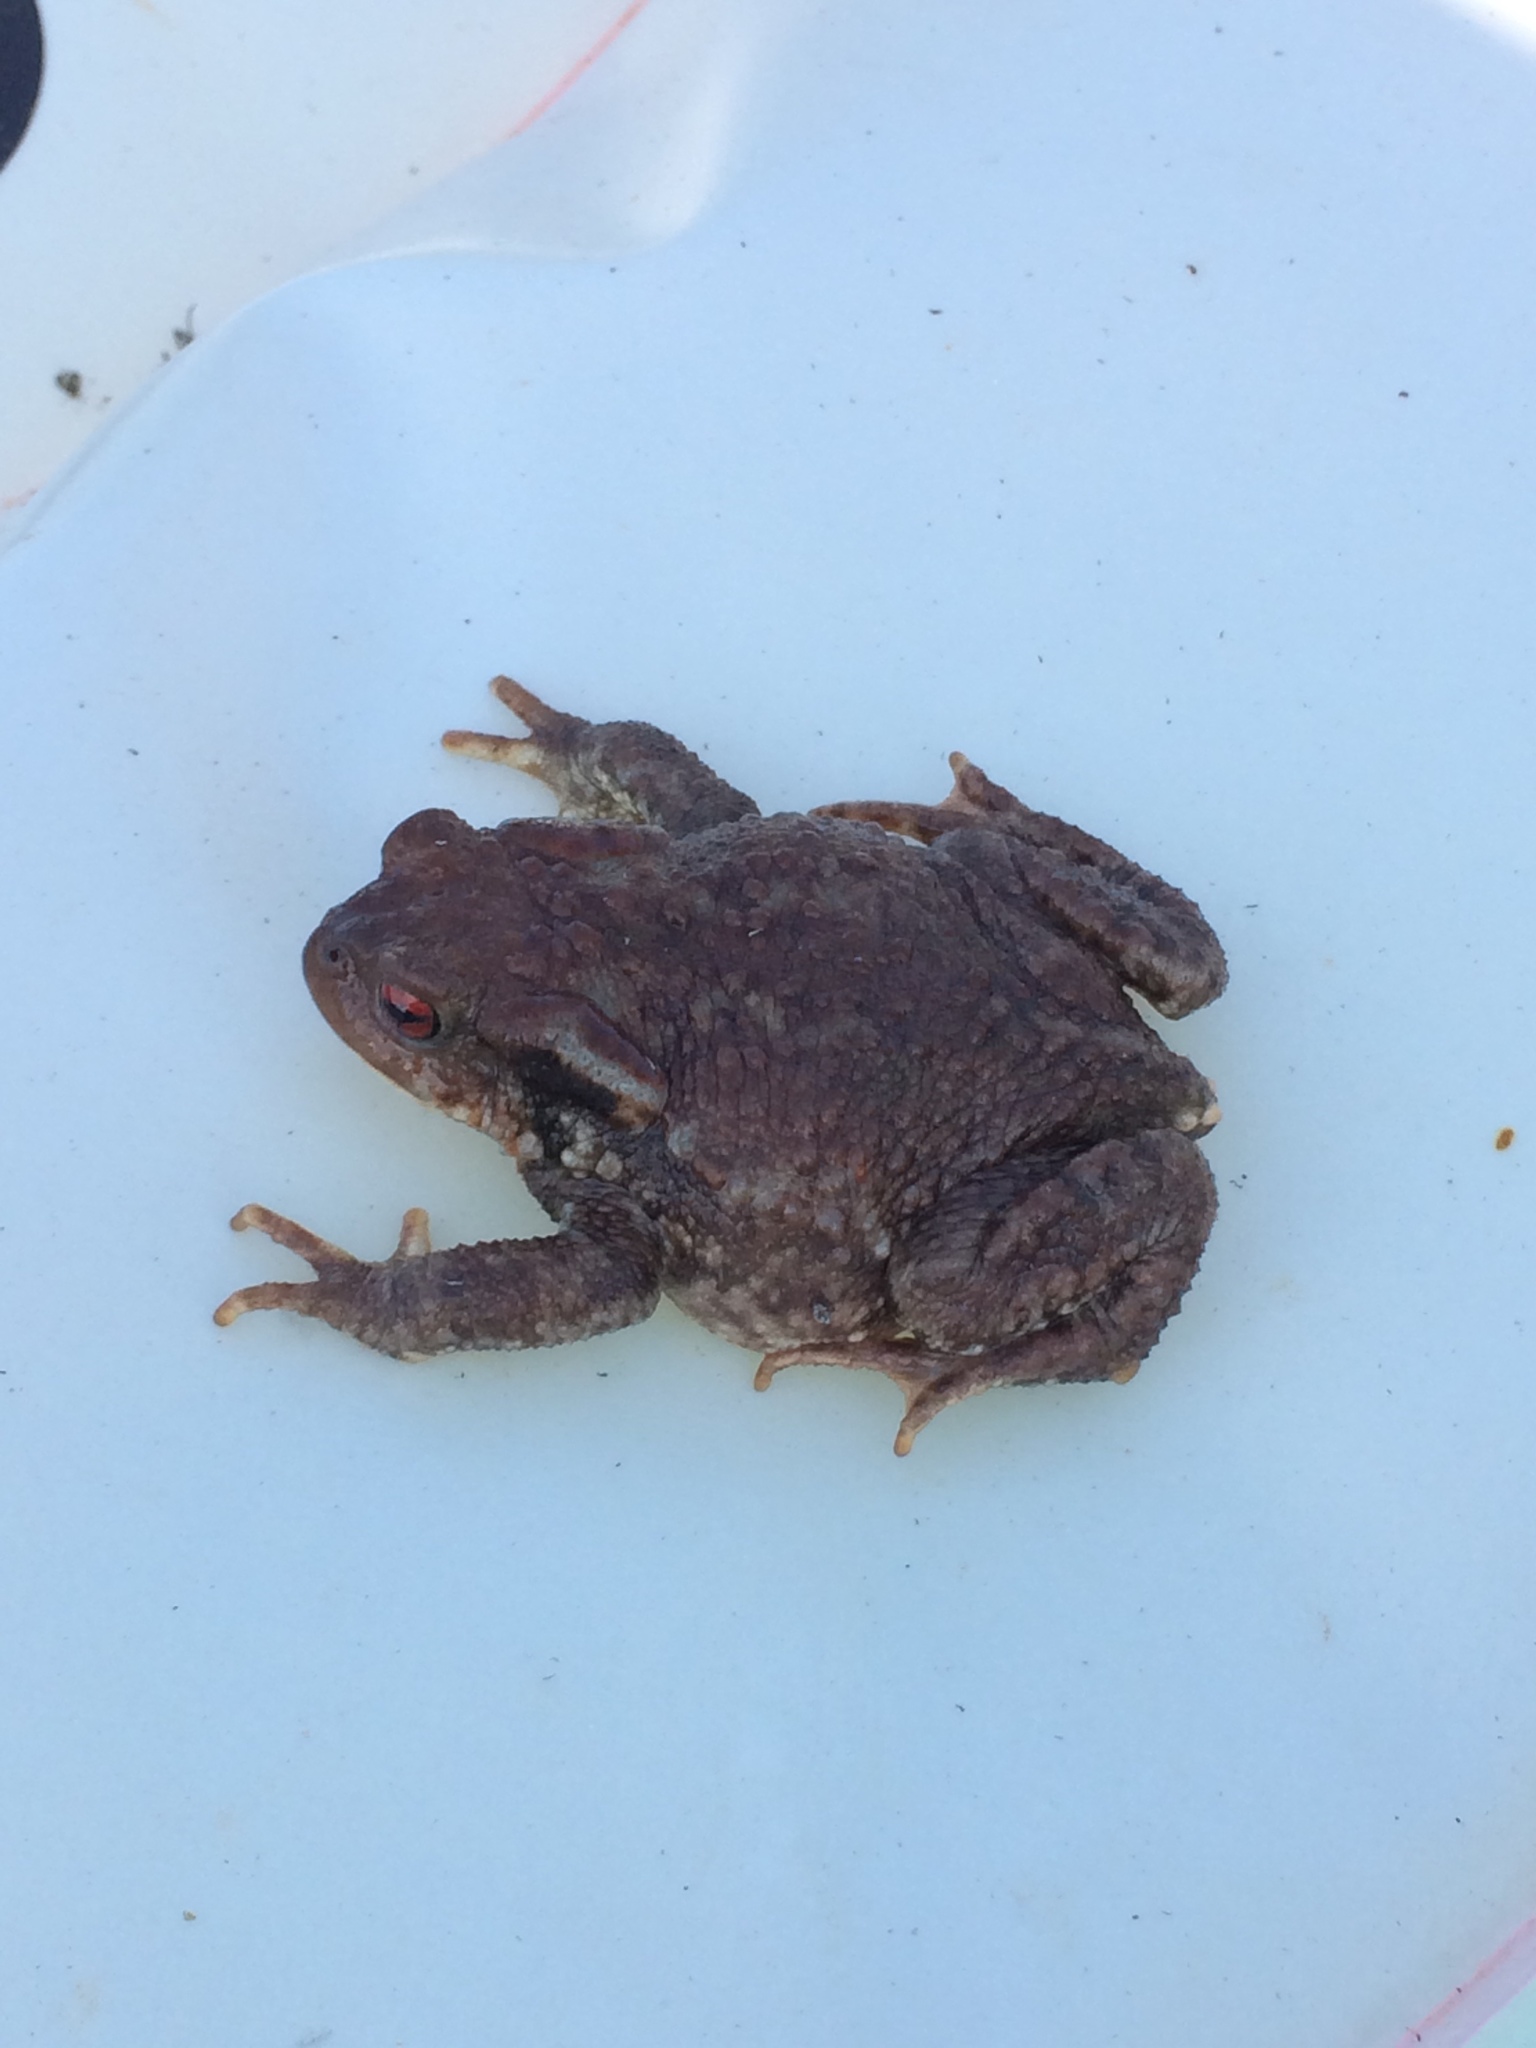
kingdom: Animalia
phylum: Chordata
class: Amphibia
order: Anura
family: Bufonidae
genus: Bufo
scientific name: Bufo spinosus
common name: Western common toad
